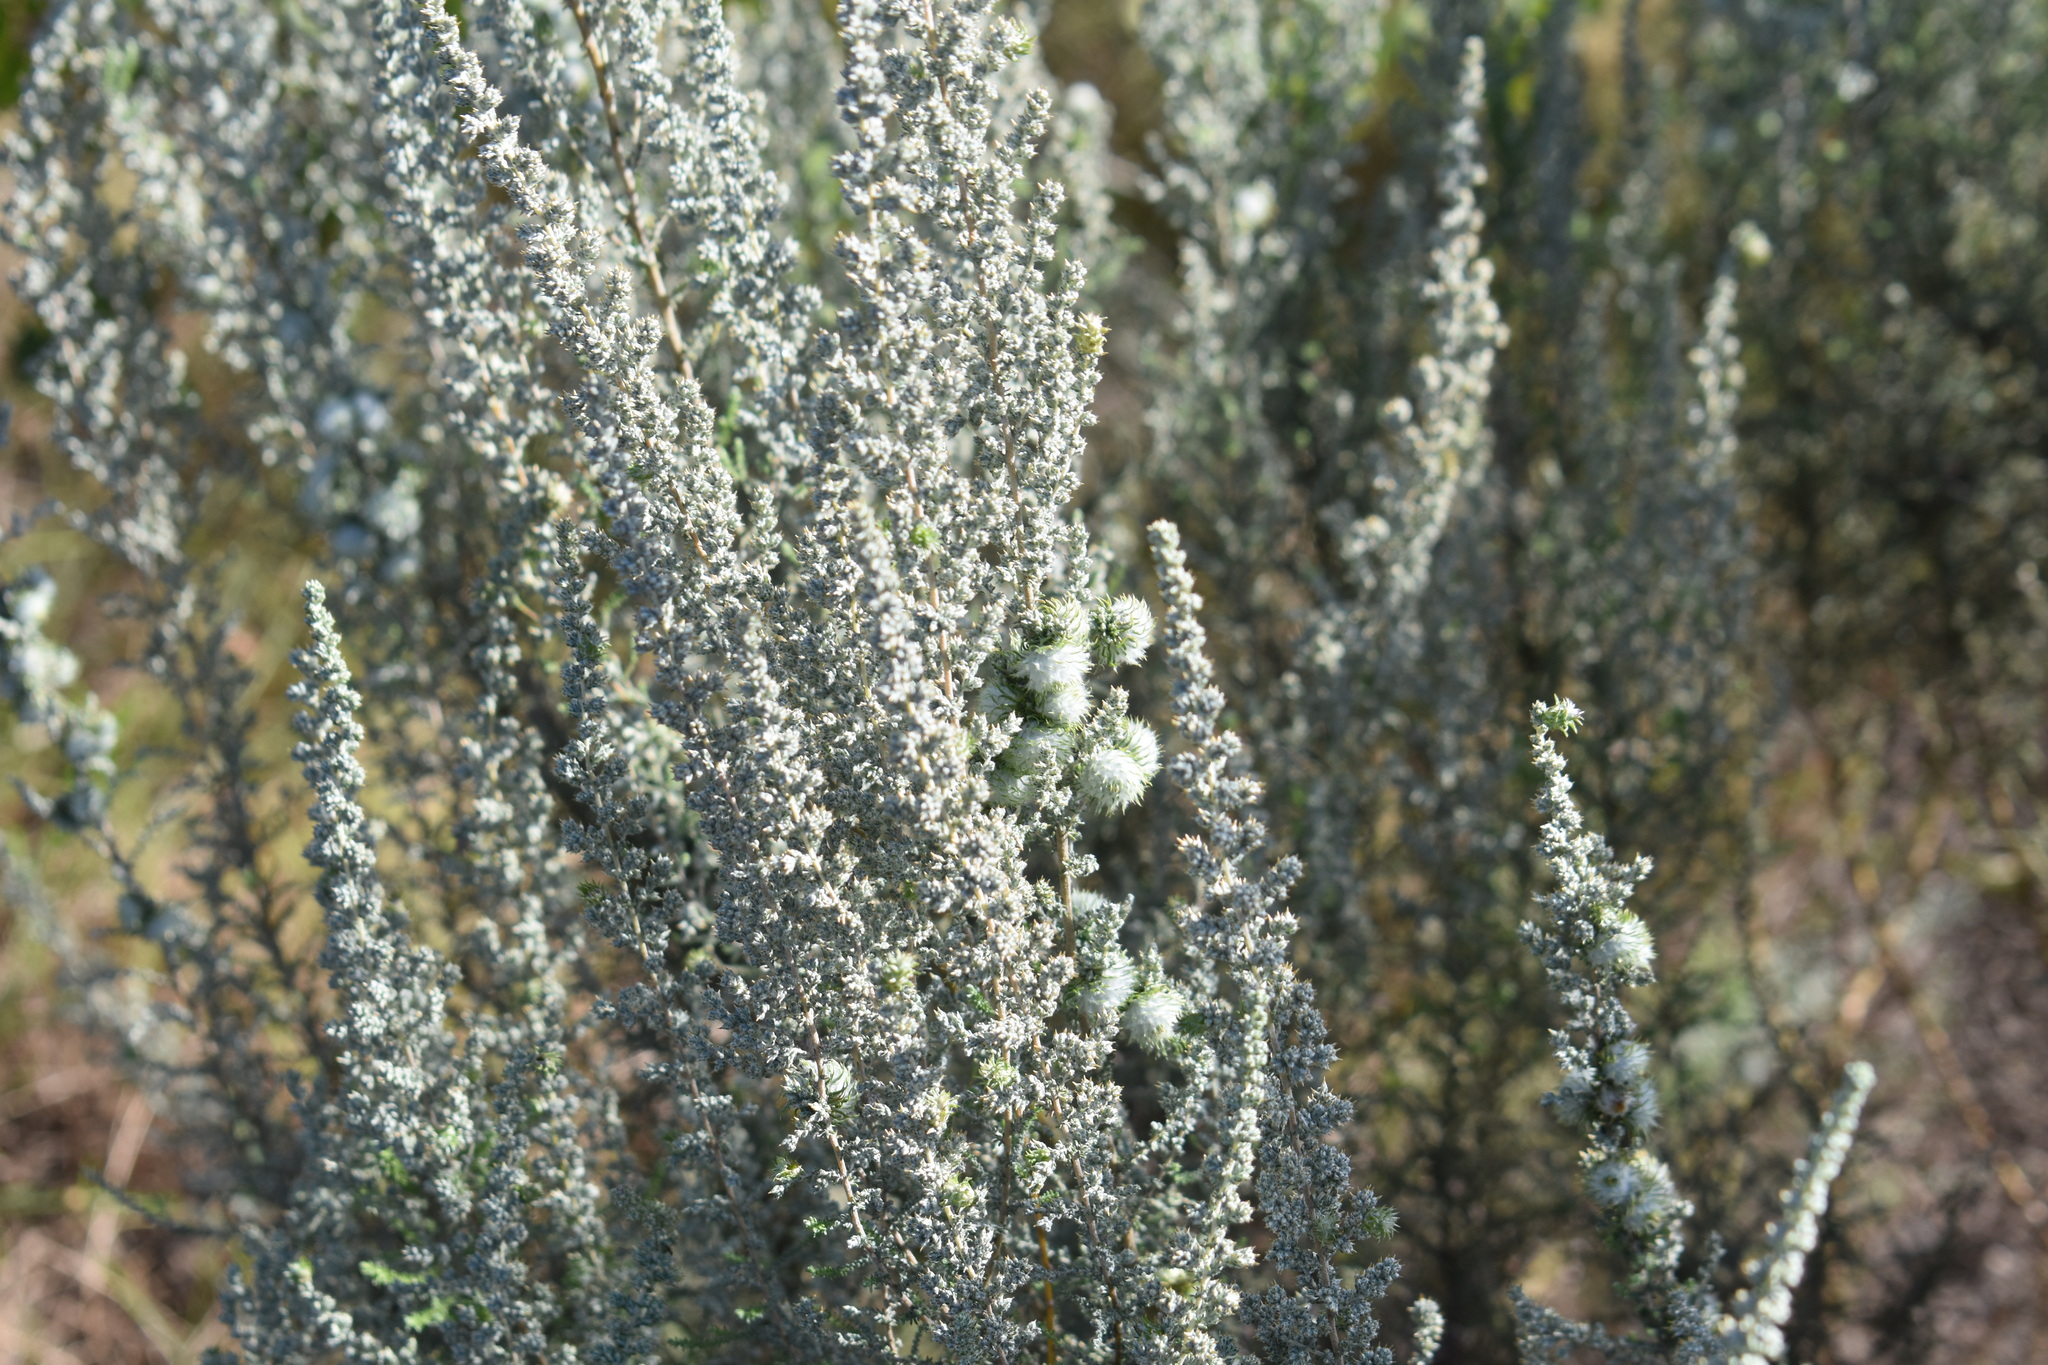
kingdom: Plantae
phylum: Tracheophyta
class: Magnoliopsida
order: Asterales
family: Asteraceae
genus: Seriphium
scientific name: Seriphium plumosum
